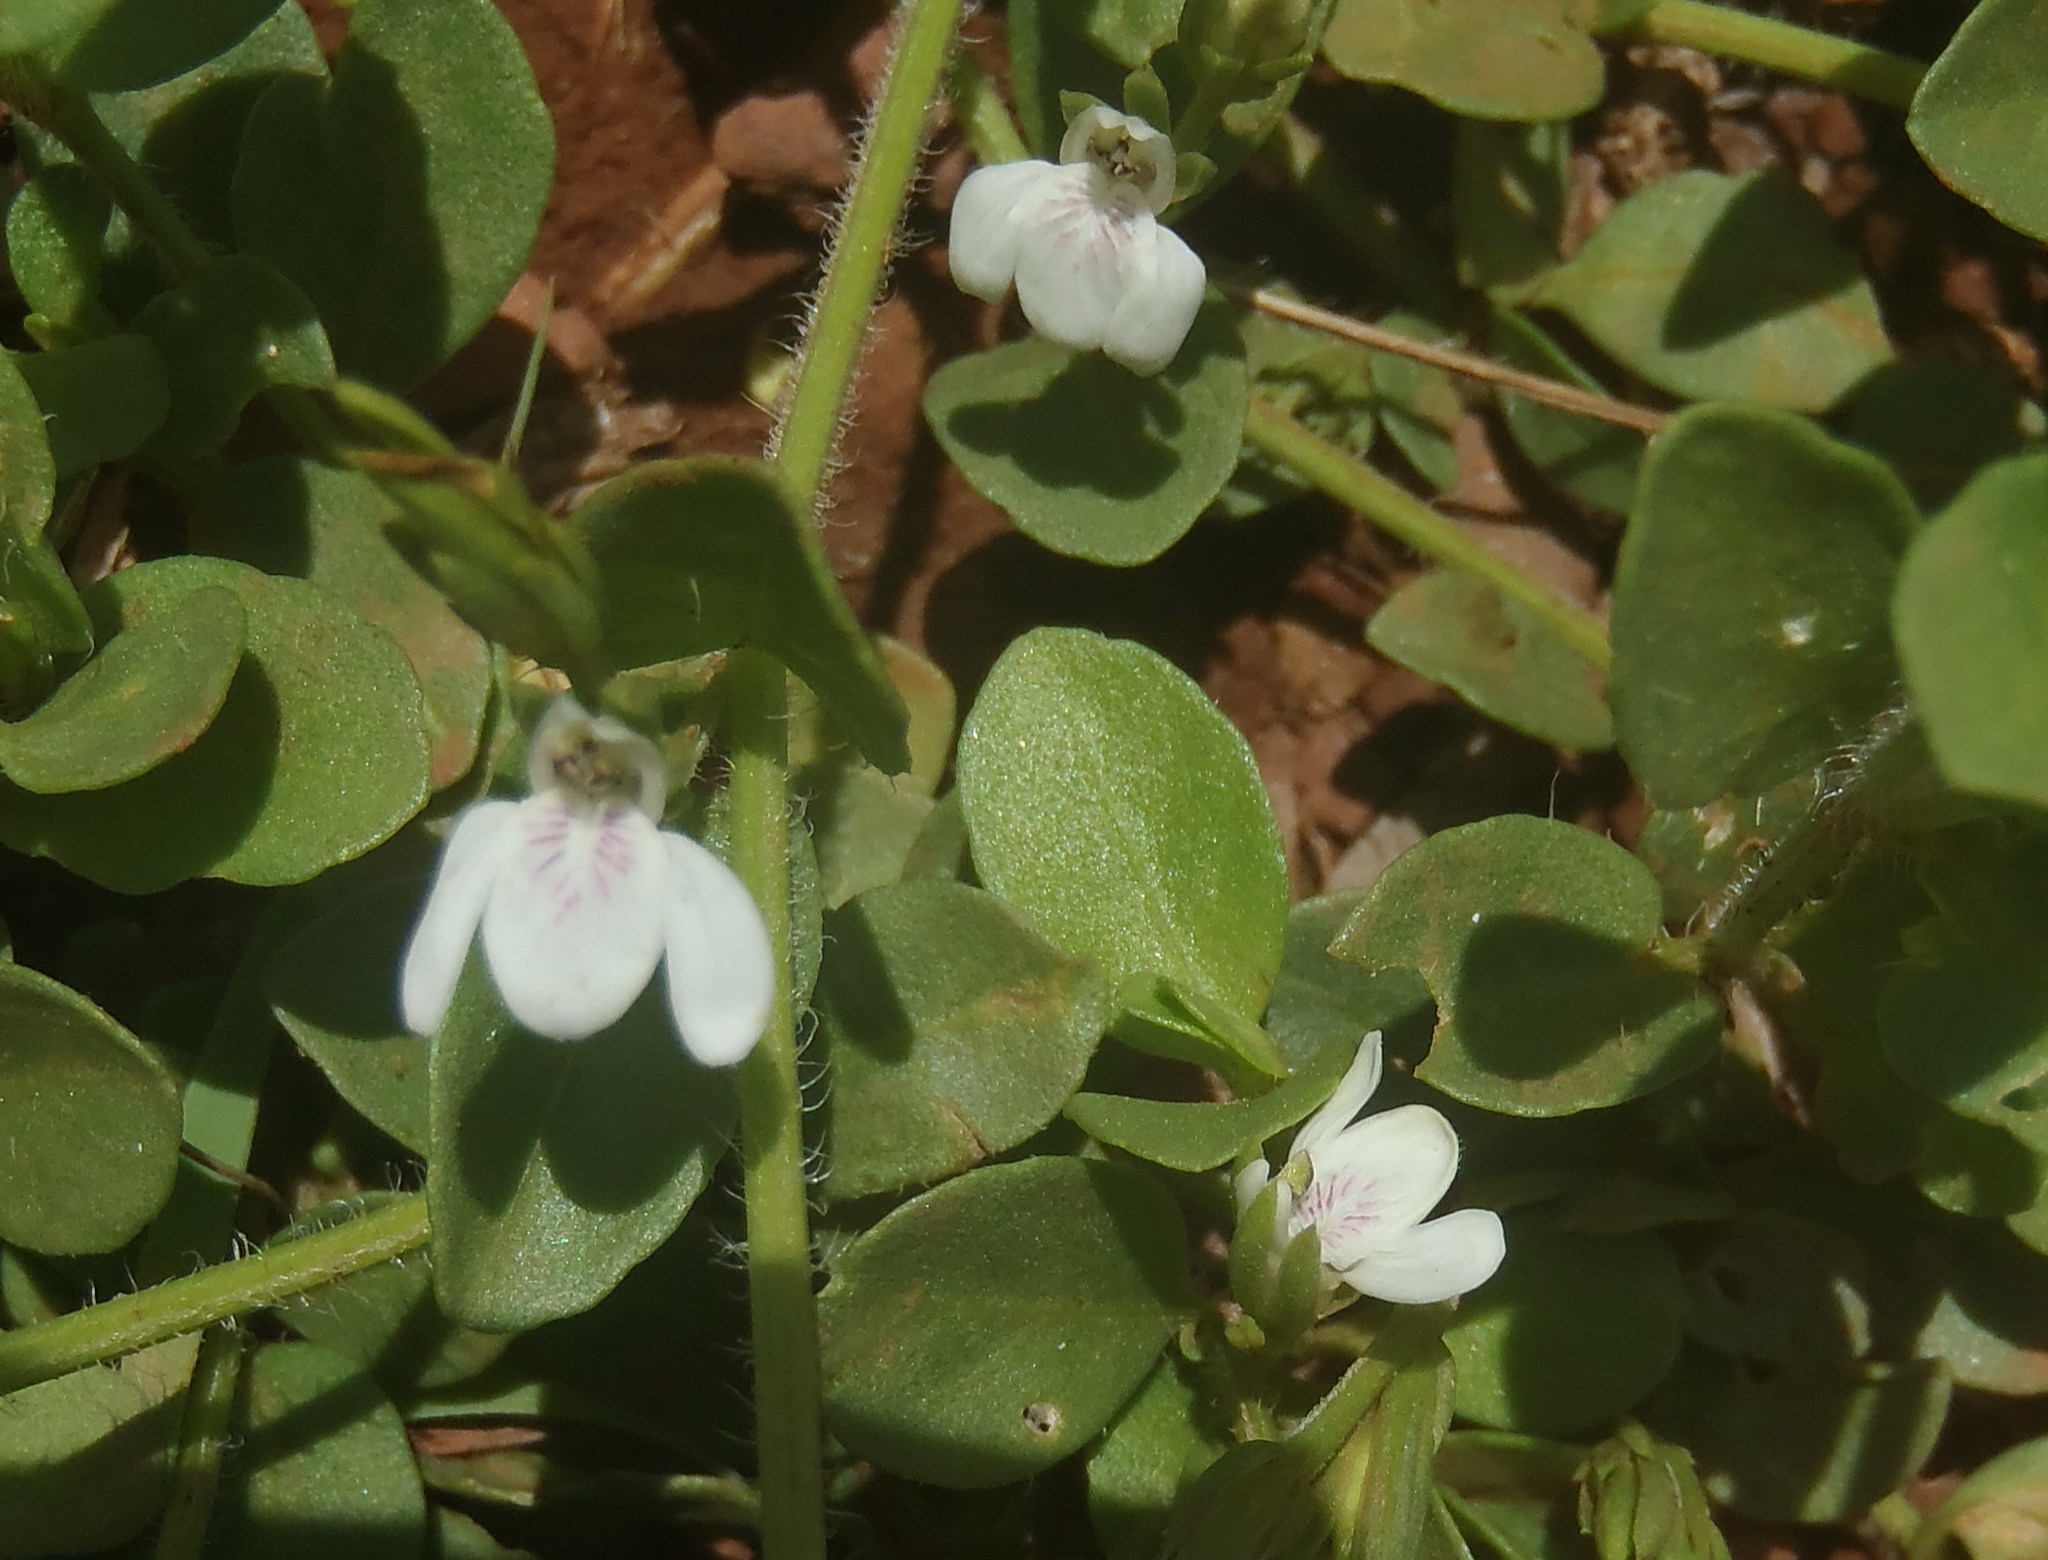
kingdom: Plantae
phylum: Tracheophyta
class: Magnoliopsida
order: Lamiales
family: Acanthaceae
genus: Justicia
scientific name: Justicia anagalloides
